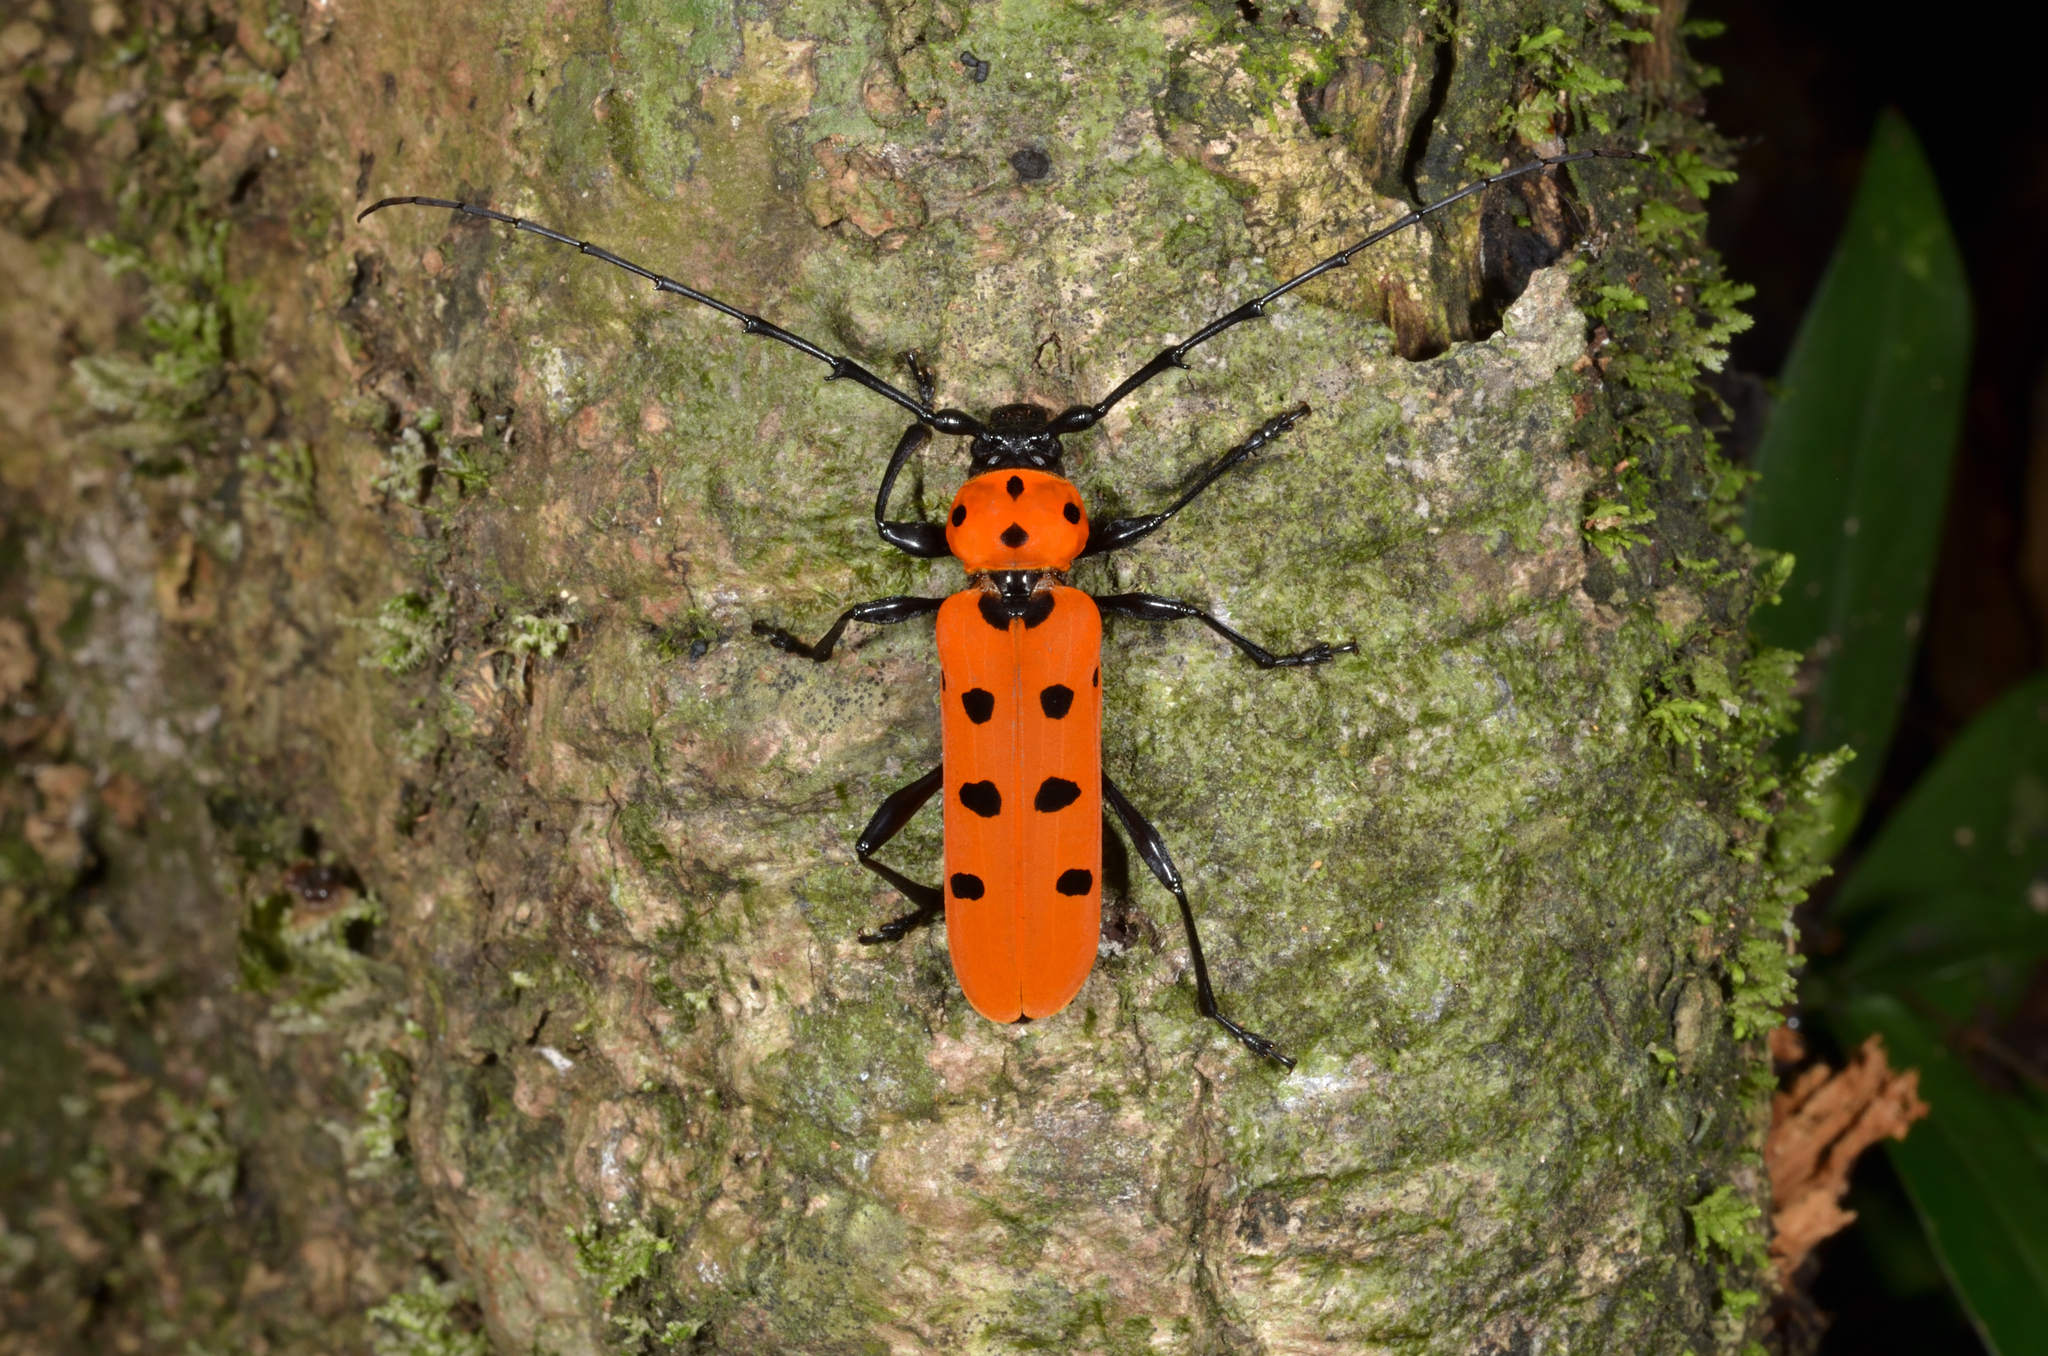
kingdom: Animalia
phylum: Arthropoda
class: Insecta
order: Coleoptera
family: Cerambycidae
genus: Rosalia
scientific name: Rosalia kubotai
